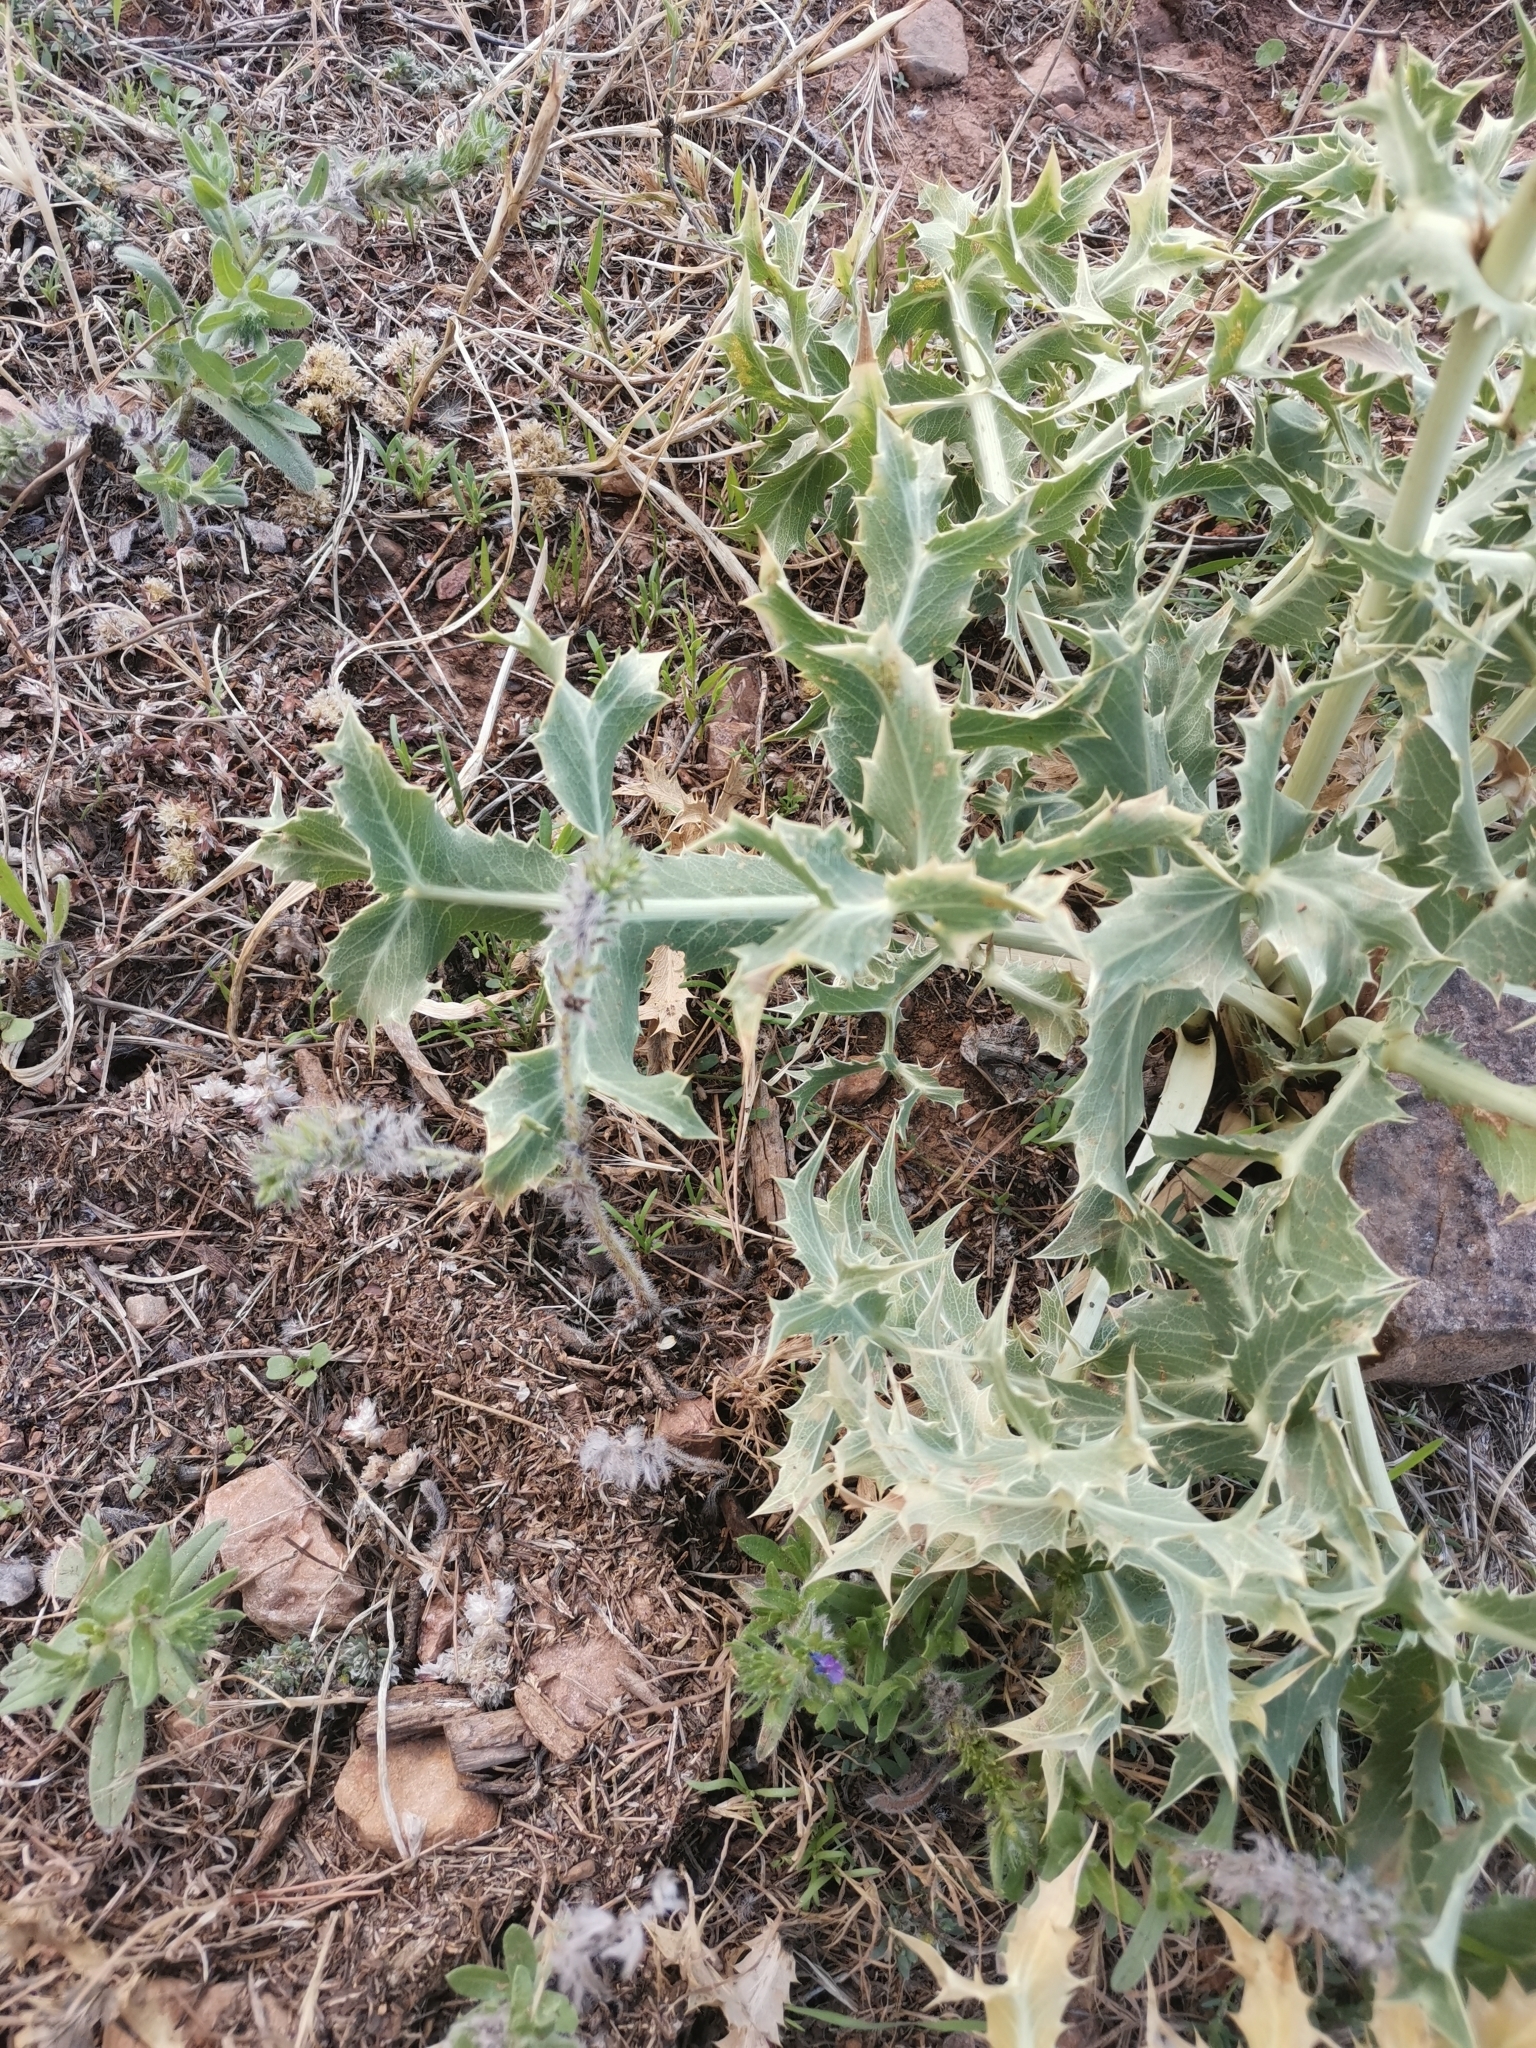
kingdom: Plantae
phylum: Tracheophyta
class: Magnoliopsida
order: Apiales
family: Apiaceae
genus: Eryngium
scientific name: Eryngium campestre
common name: Field eryngo
